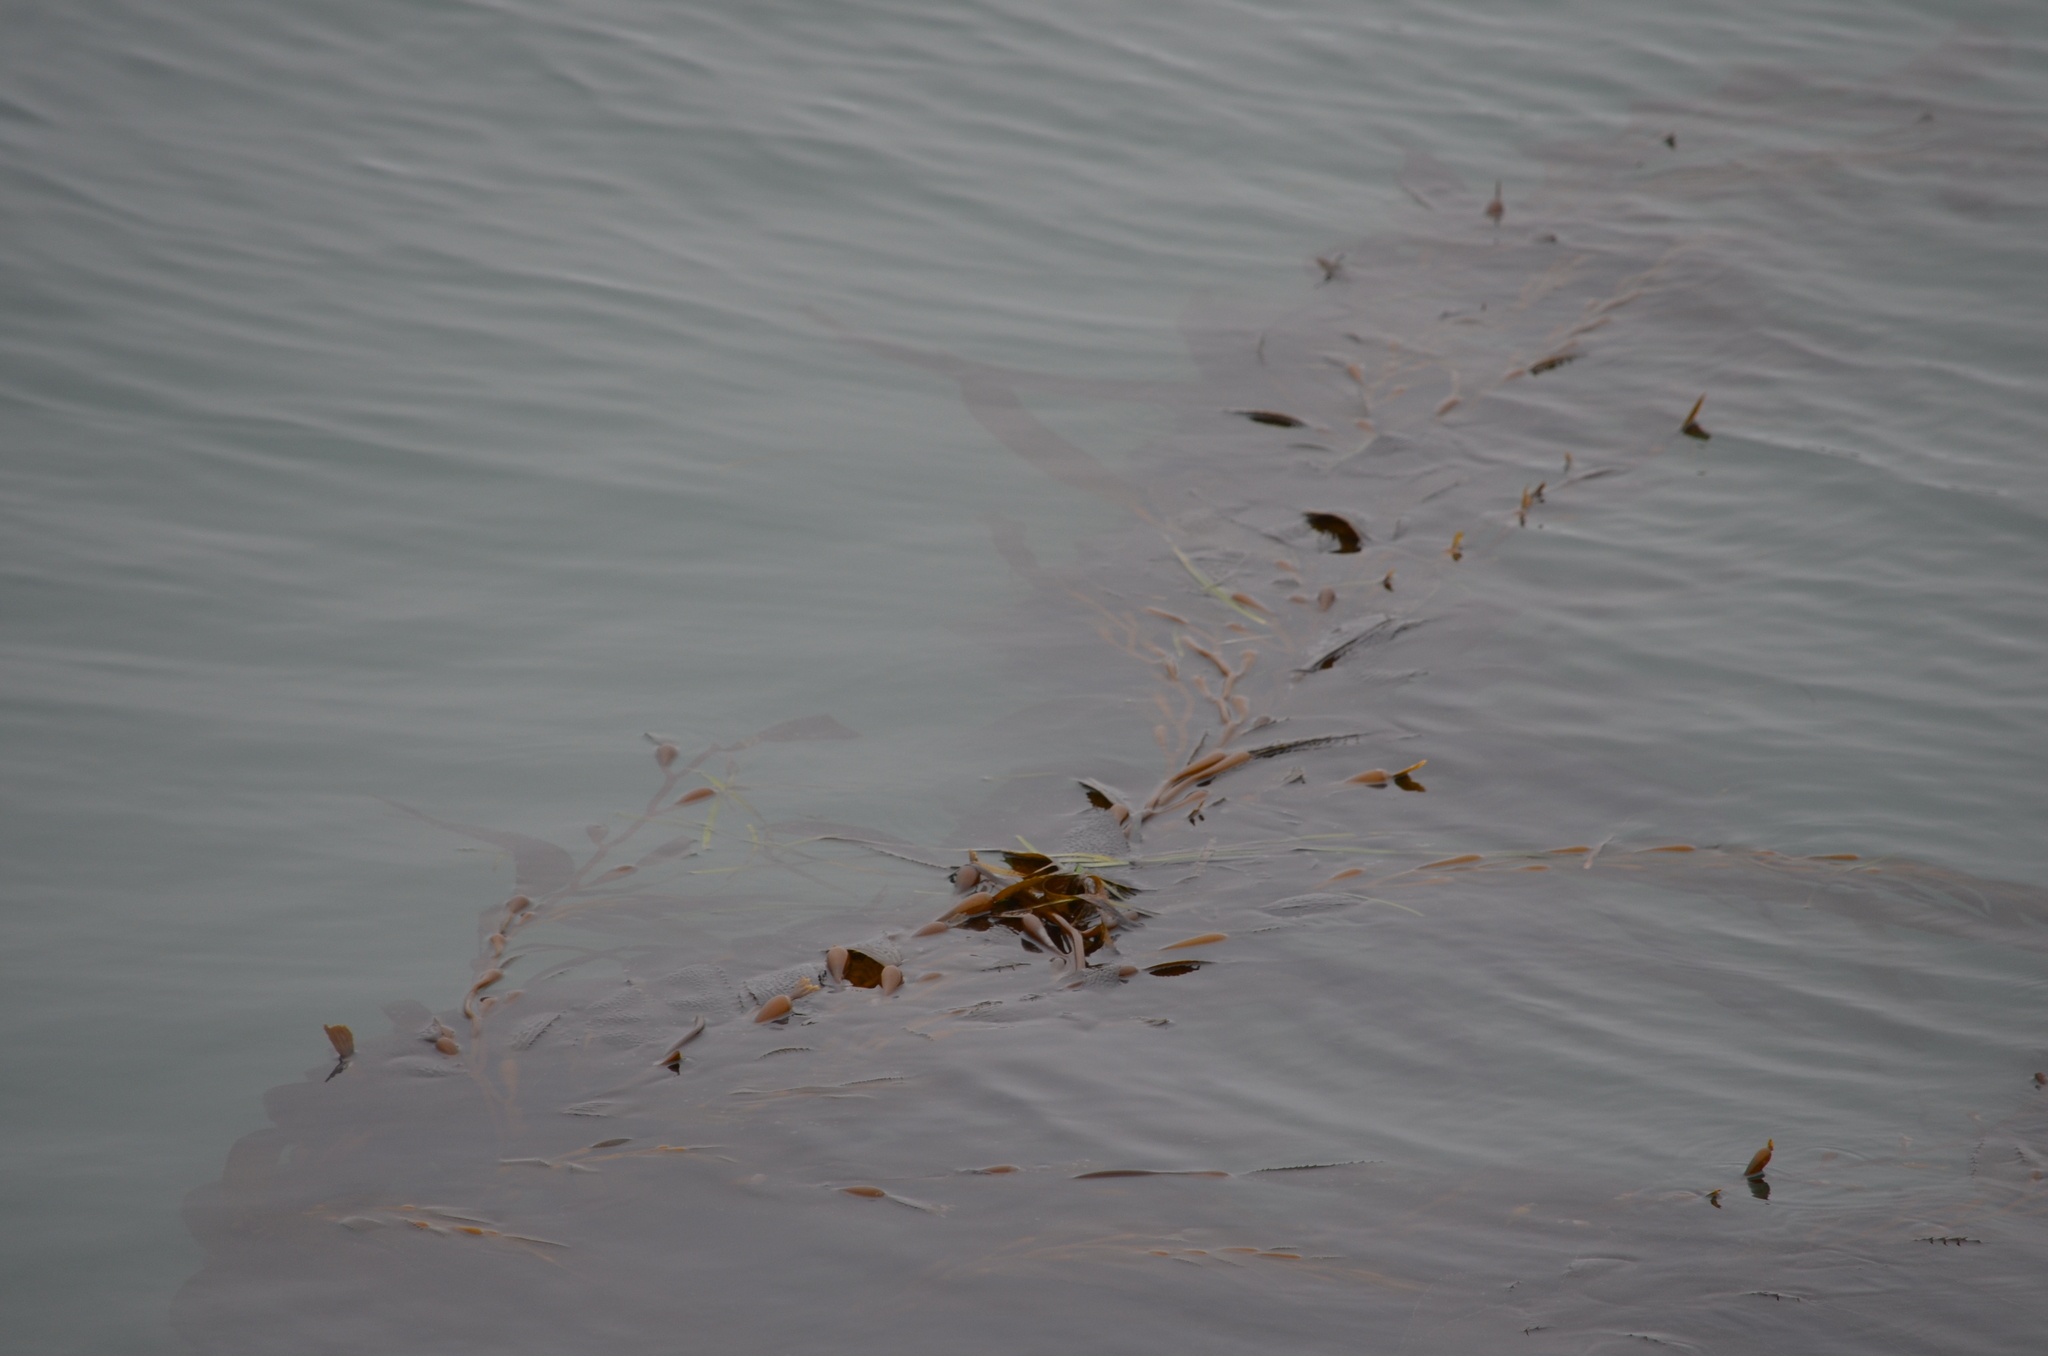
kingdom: Chromista
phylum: Ochrophyta
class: Phaeophyceae
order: Laminariales
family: Laminariaceae
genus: Macrocystis
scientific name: Macrocystis pyrifera
